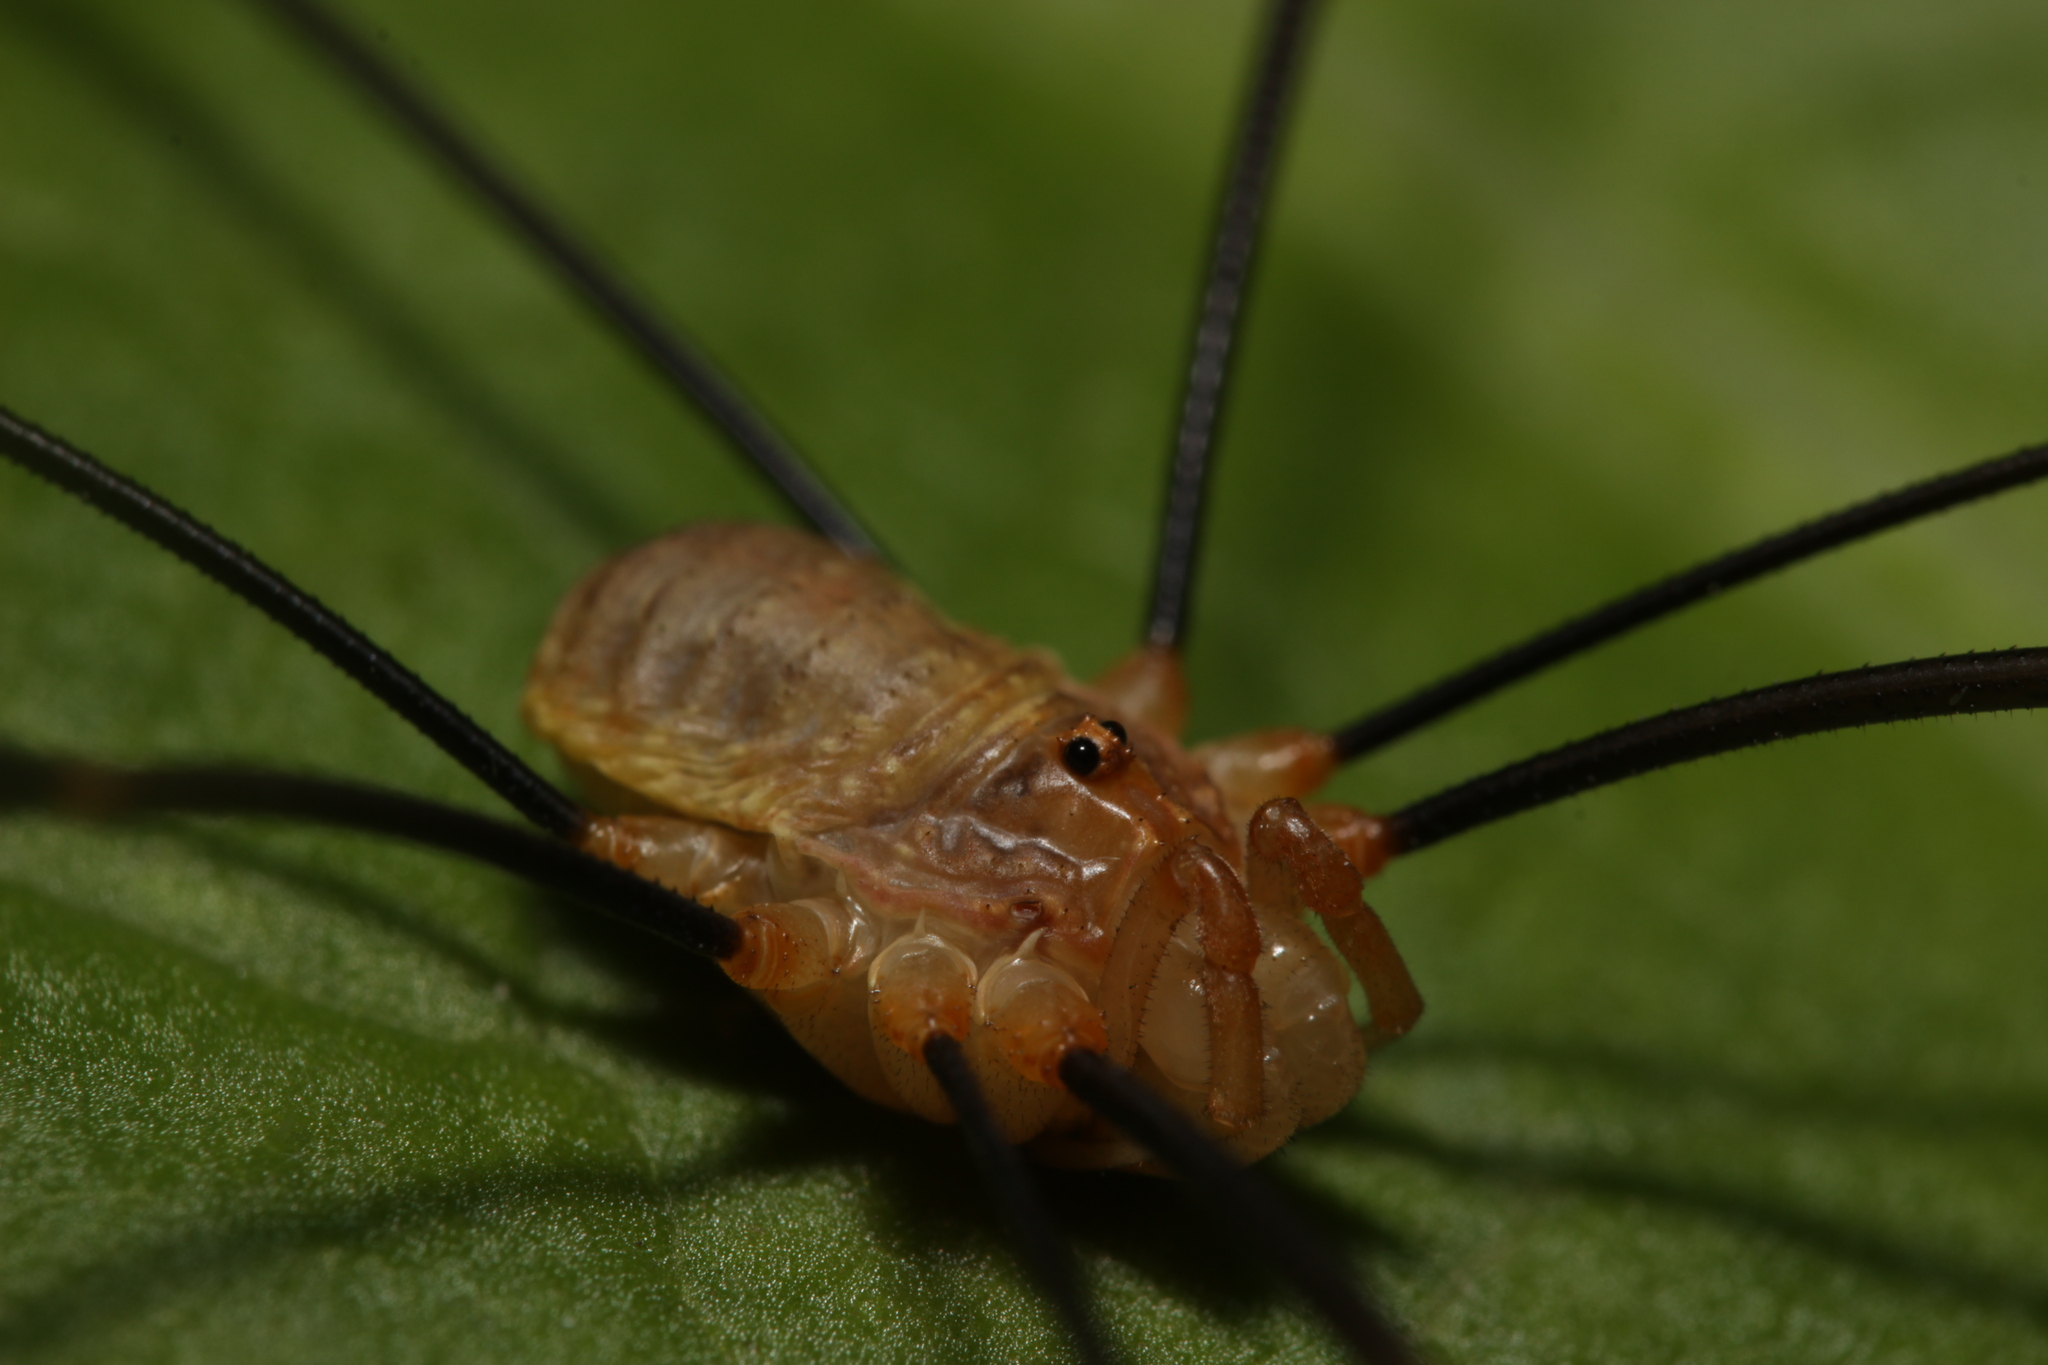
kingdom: Animalia
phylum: Arthropoda
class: Arachnida
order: Opiliones
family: Phalangiidae
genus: Opilio
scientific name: Opilio canestrinii
